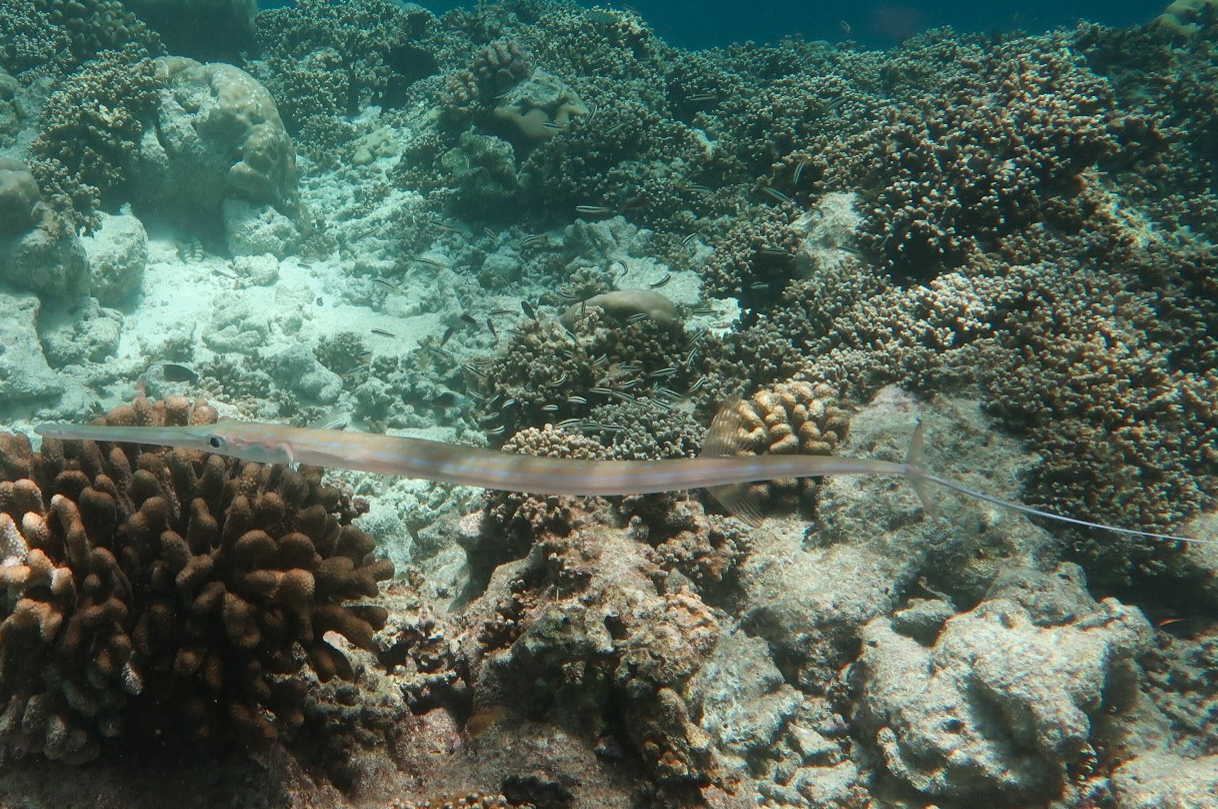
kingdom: Animalia
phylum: Chordata
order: Syngnathiformes
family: Fistulariidae
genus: Fistularia
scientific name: Fistularia commersonii
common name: Bluespotted cornetfish
